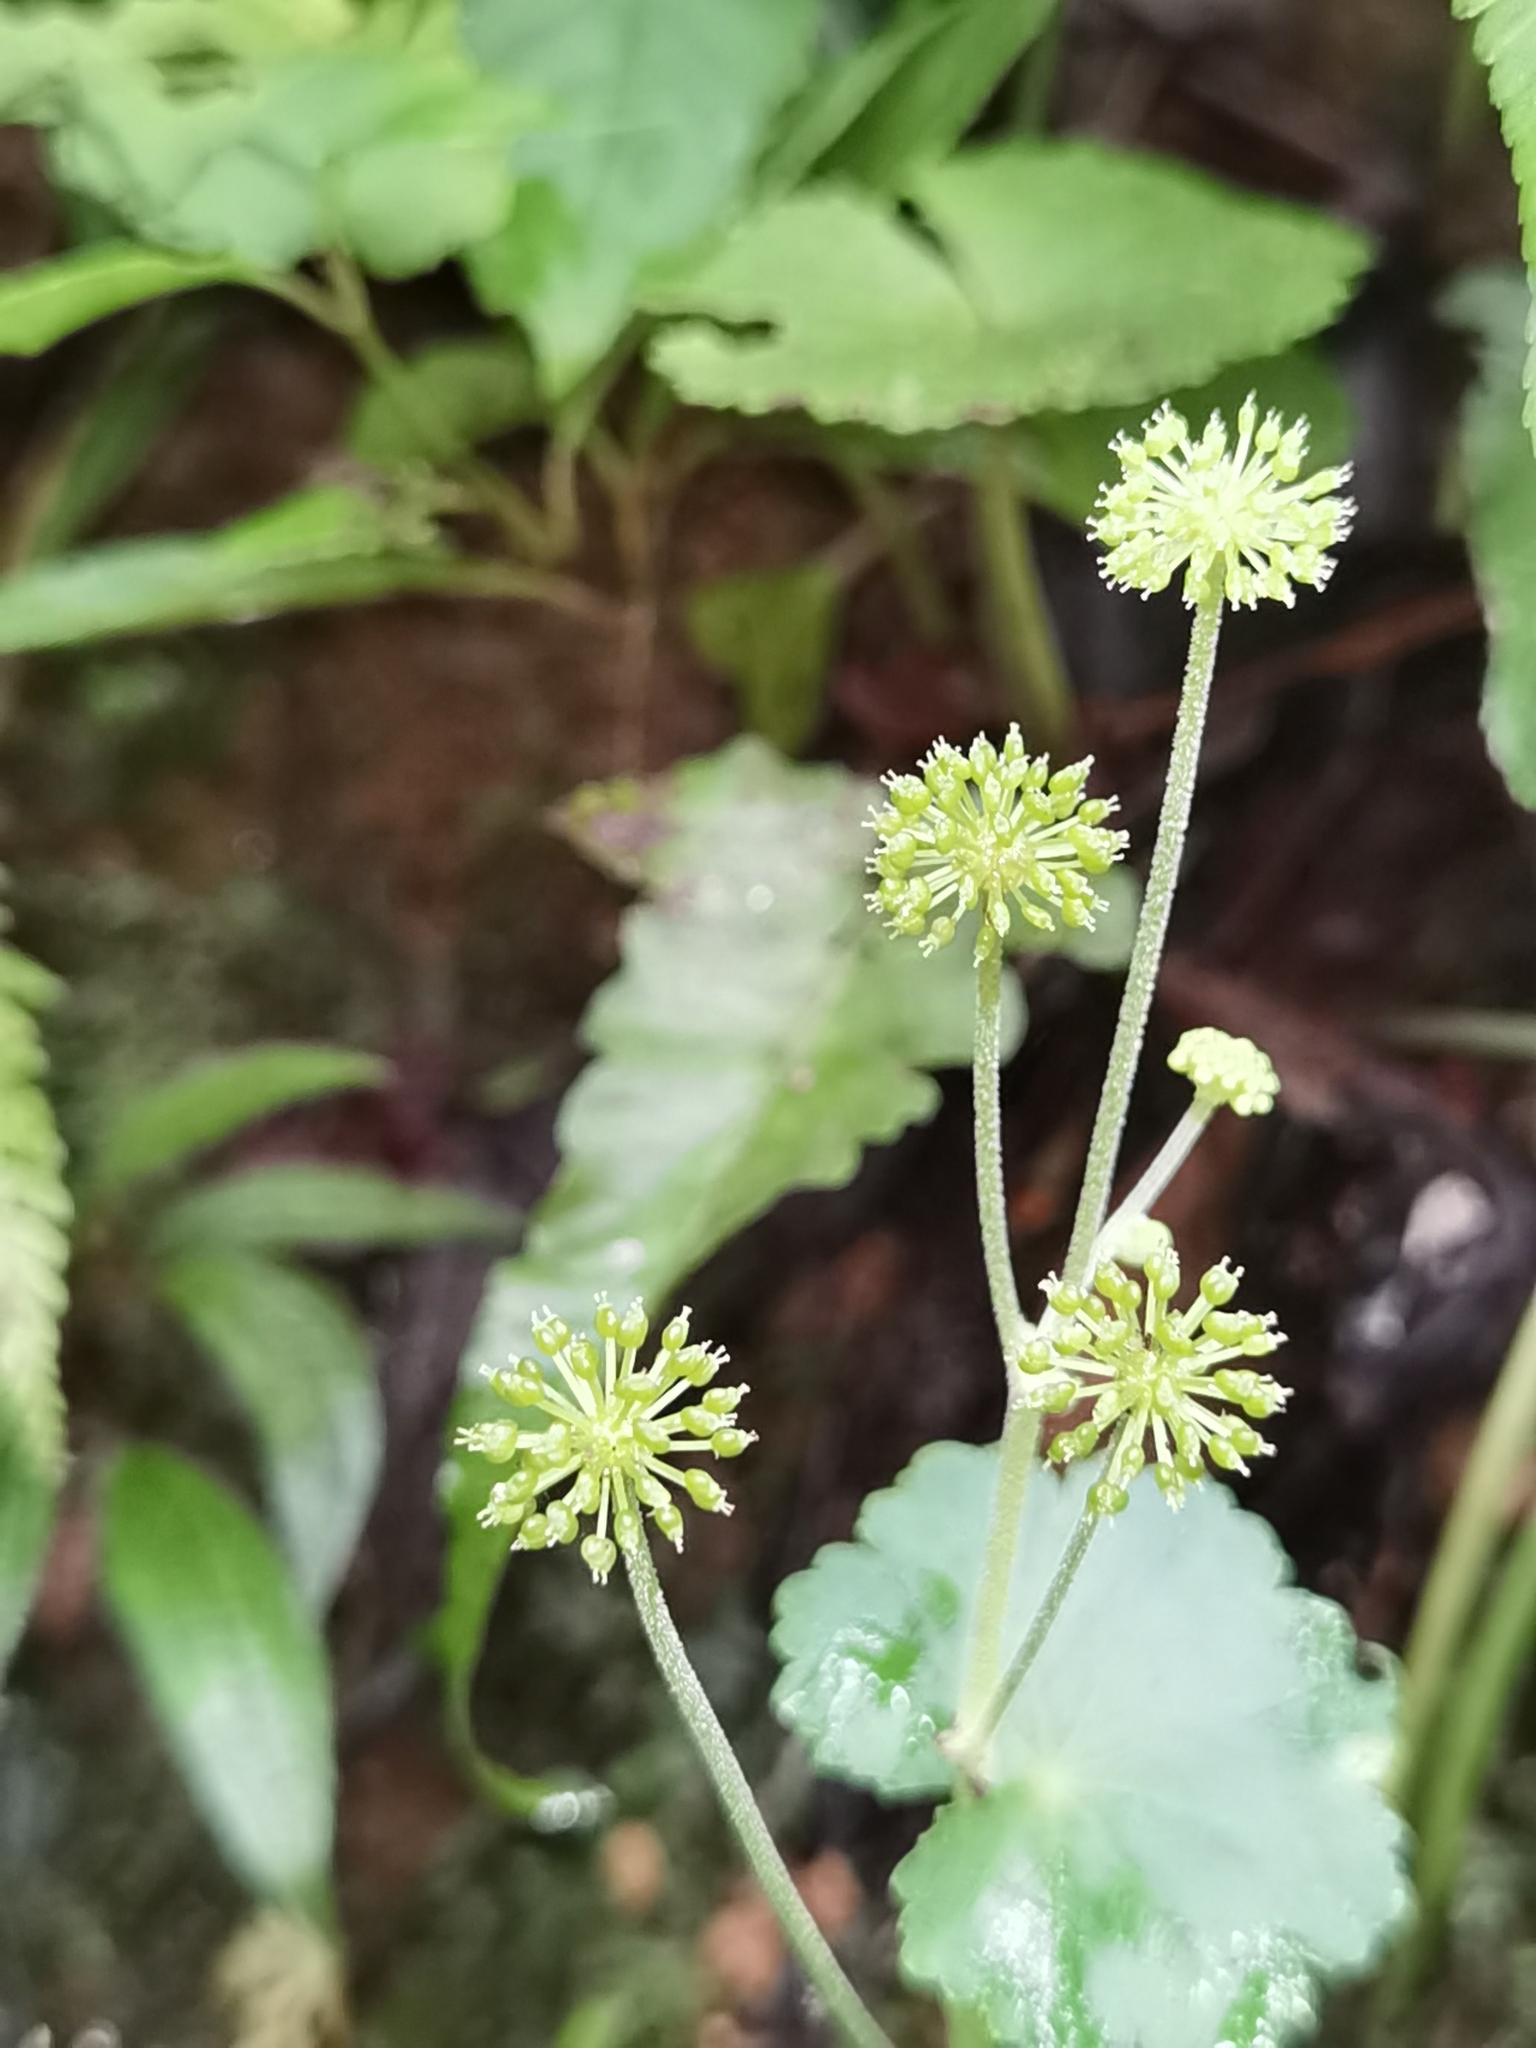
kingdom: Plantae
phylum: Tracheophyta
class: Magnoliopsida
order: Apiales
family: Araliaceae
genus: Hydrocotyle
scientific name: Hydrocotyle mexicana
